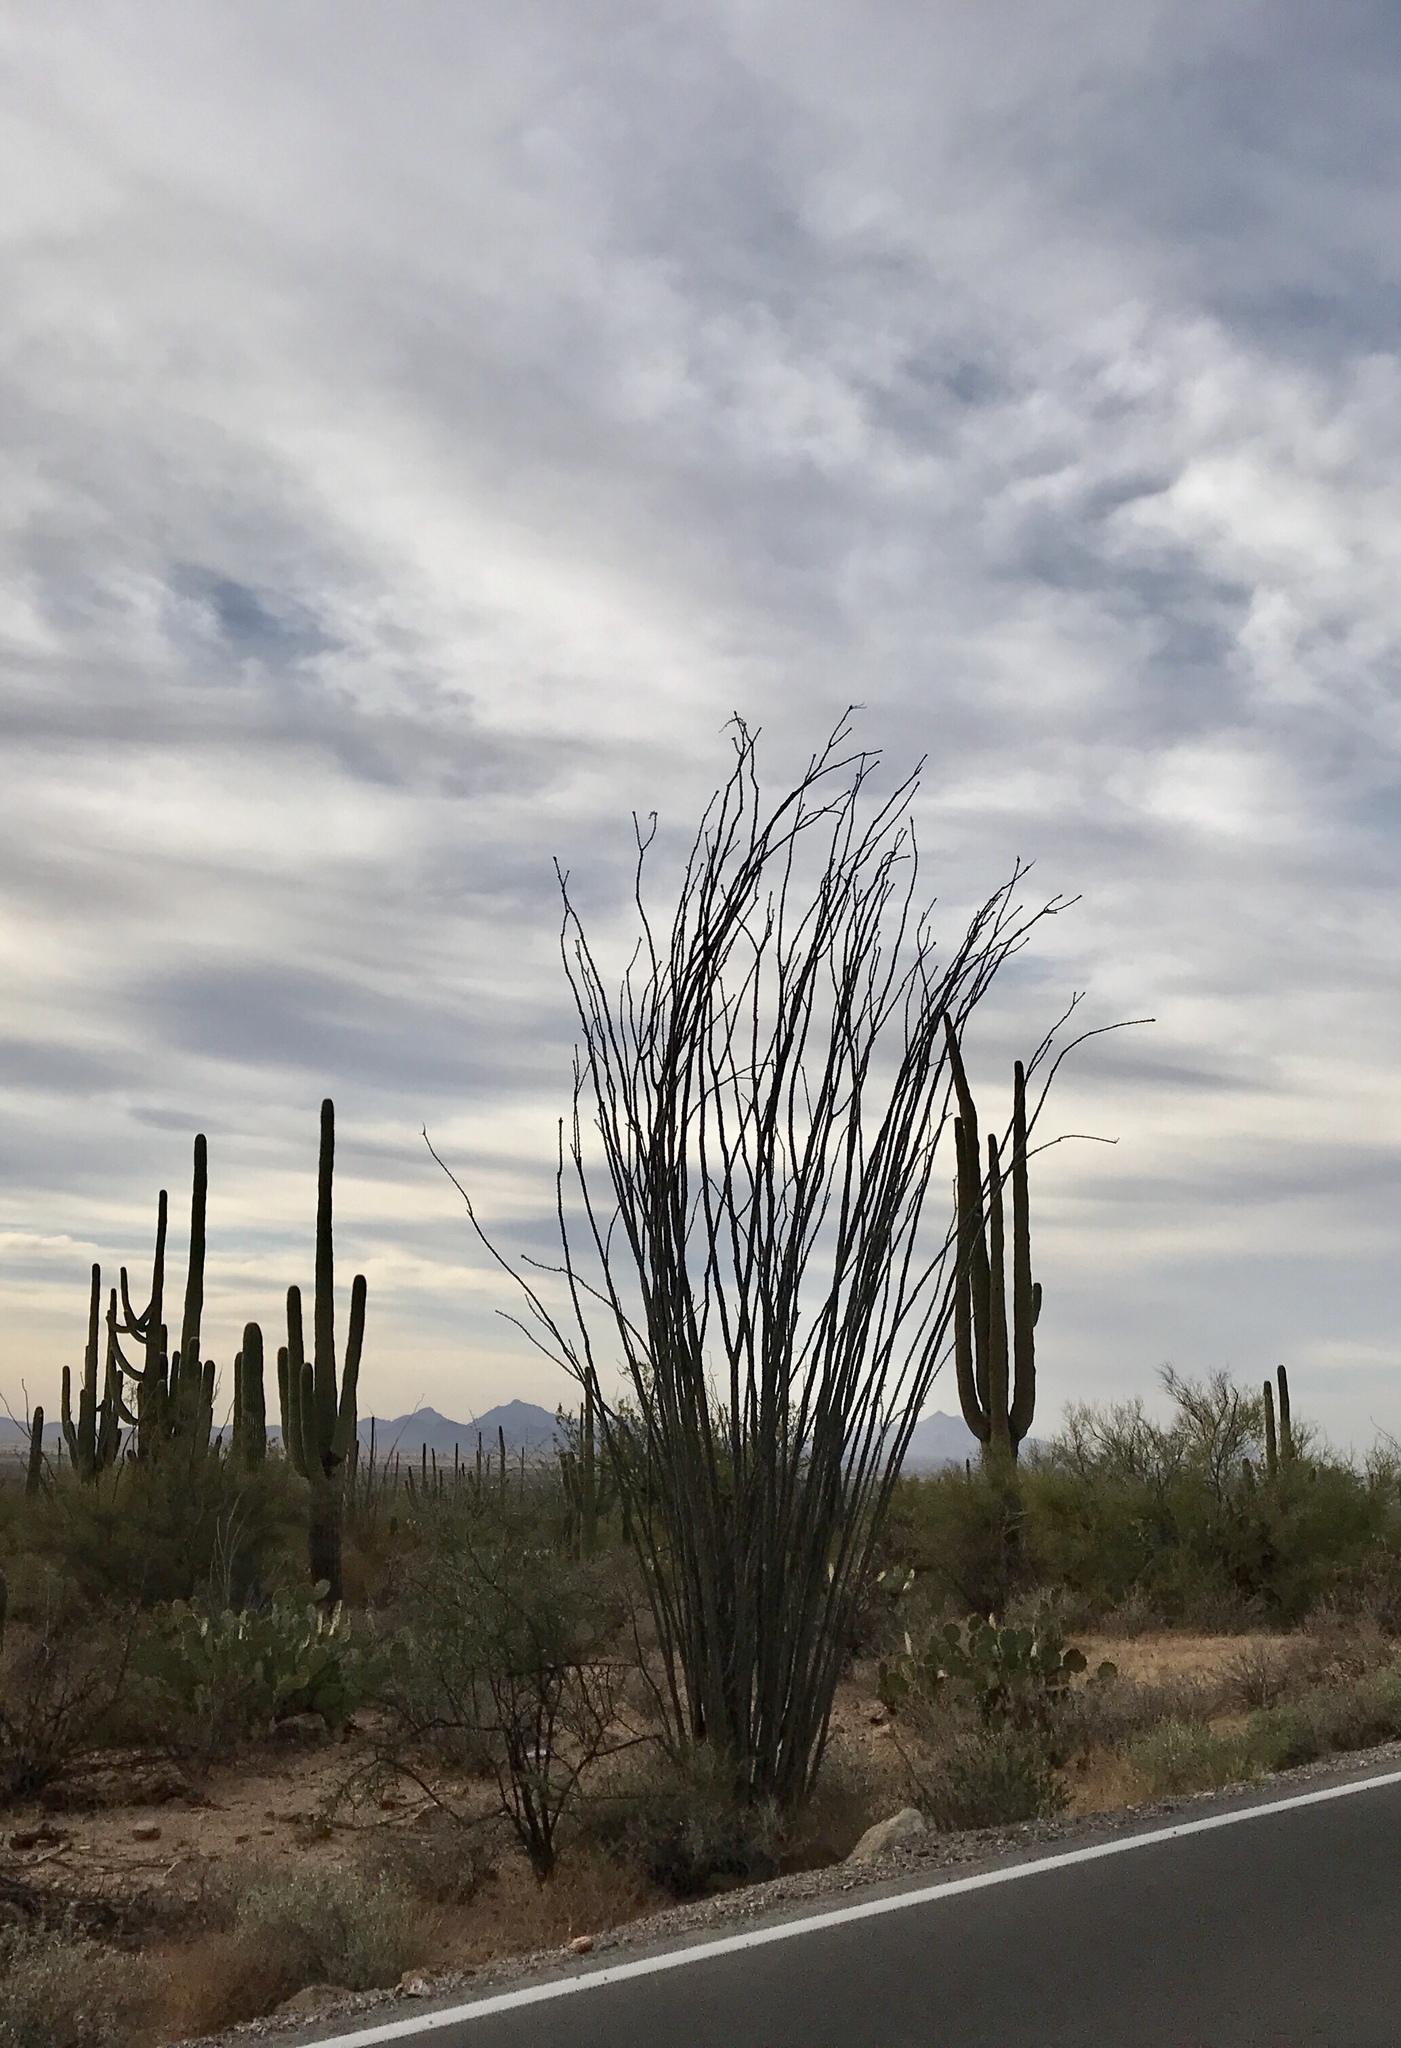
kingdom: Plantae
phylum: Tracheophyta
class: Magnoliopsida
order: Ericales
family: Fouquieriaceae
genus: Fouquieria
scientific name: Fouquieria splendens
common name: Vine-cactus
